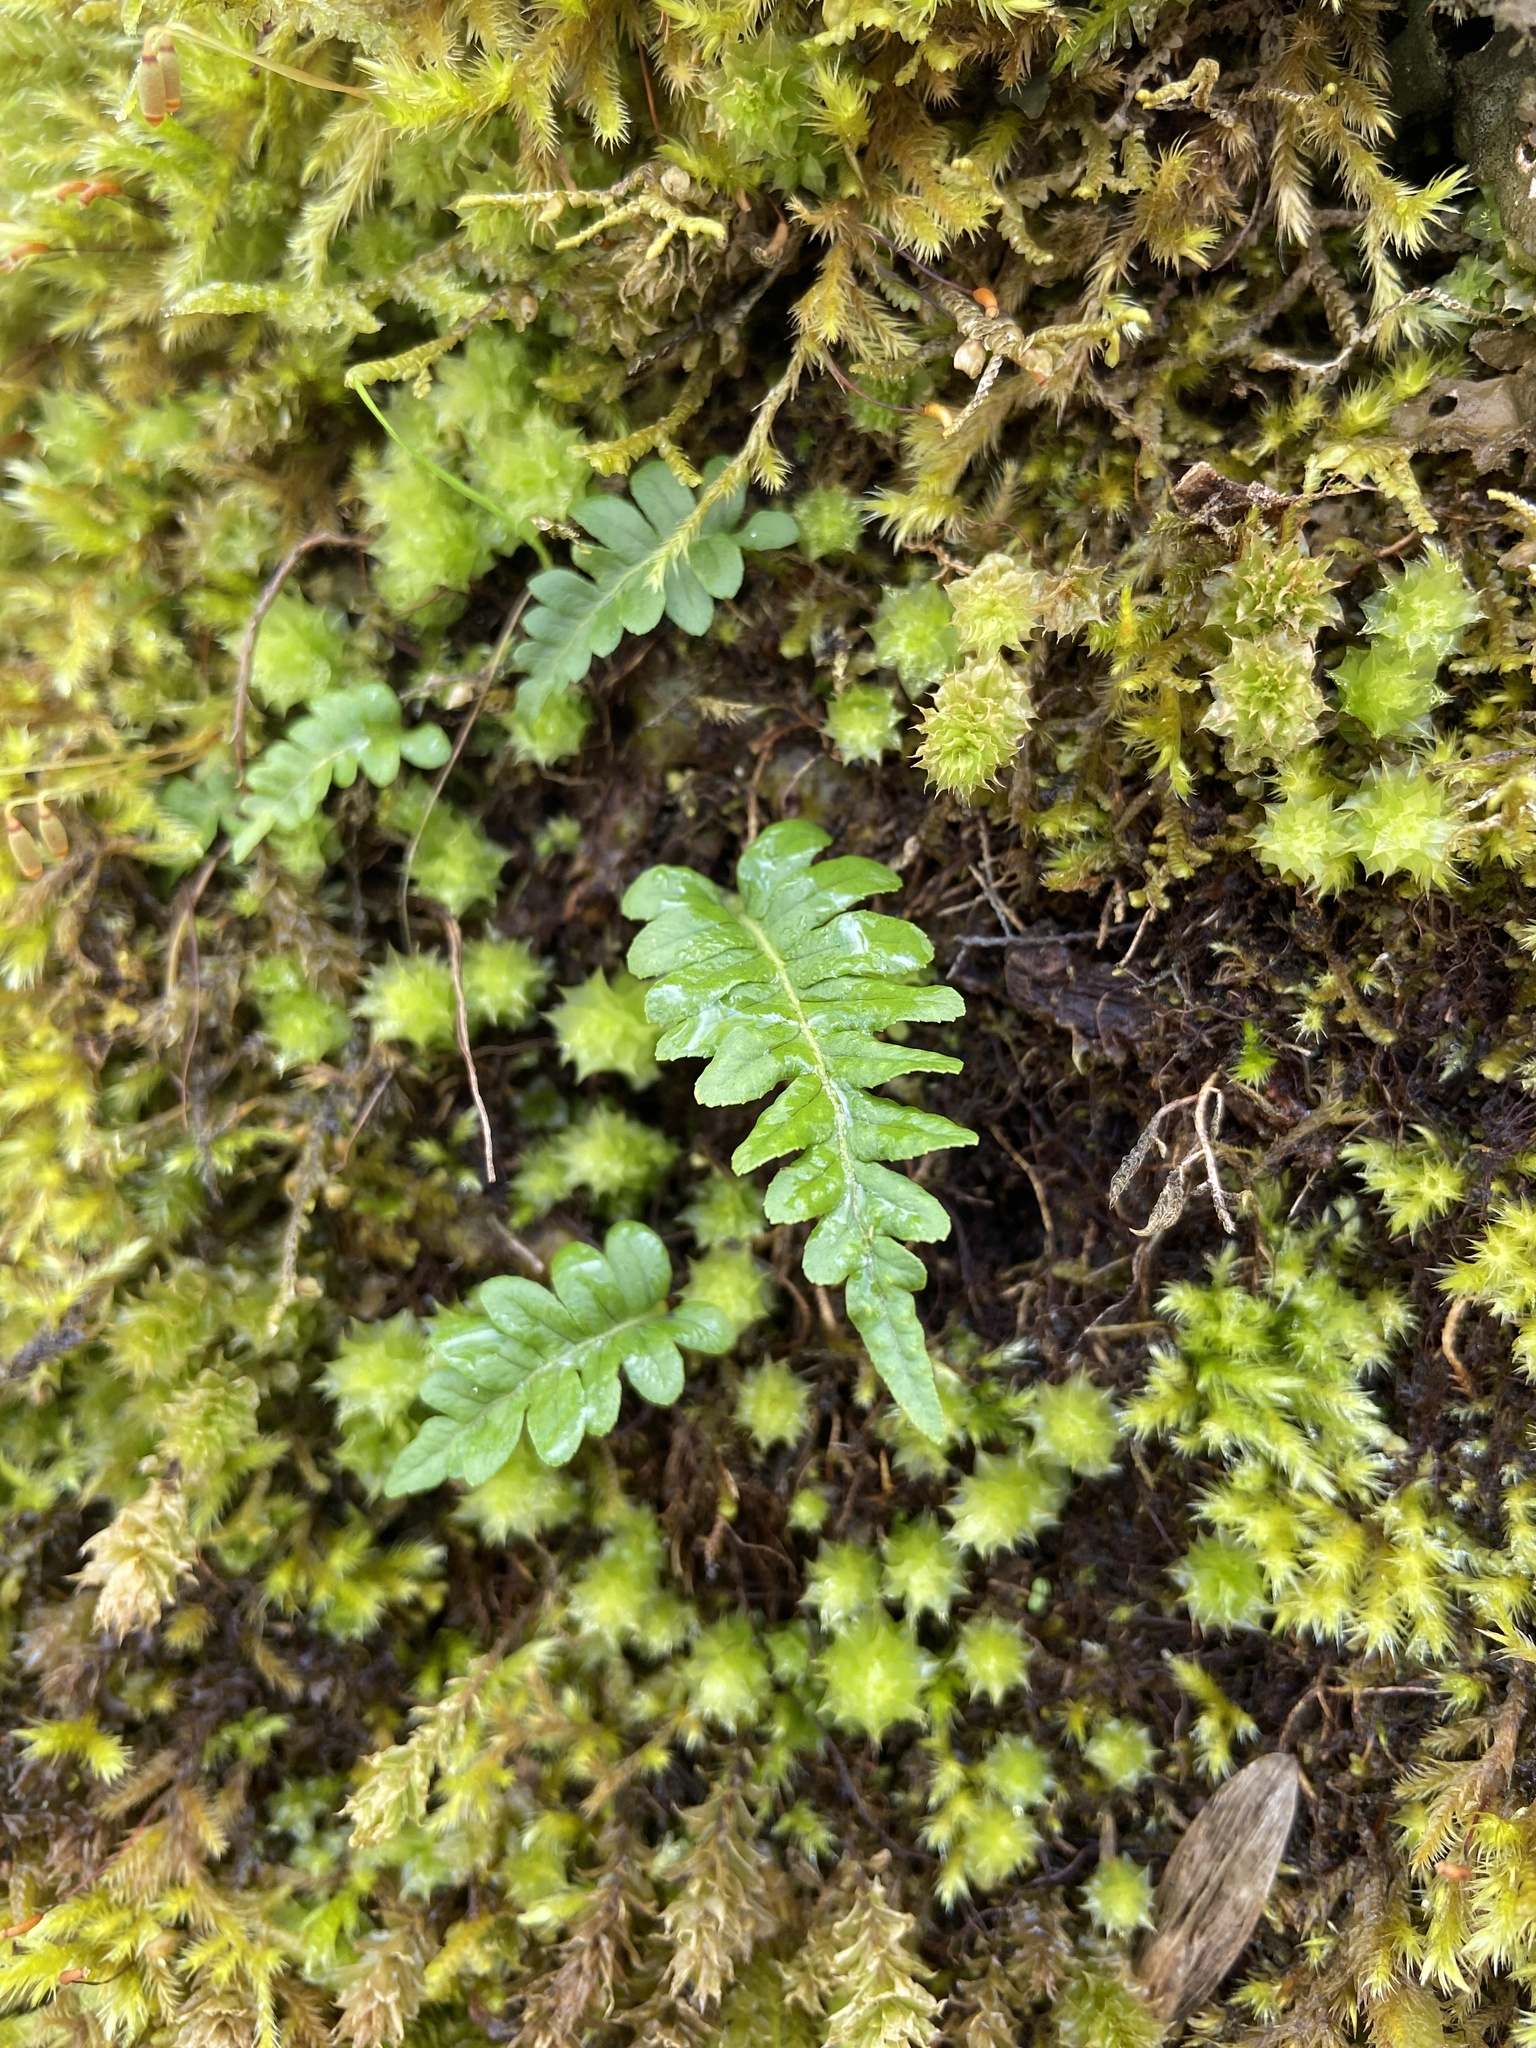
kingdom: Plantae
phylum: Tracheophyta
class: Polypodiopsida
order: Polypodiales
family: Polypodiaceae
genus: Polypodium
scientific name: Polypodium glycyrrhiza
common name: Licorice fern
